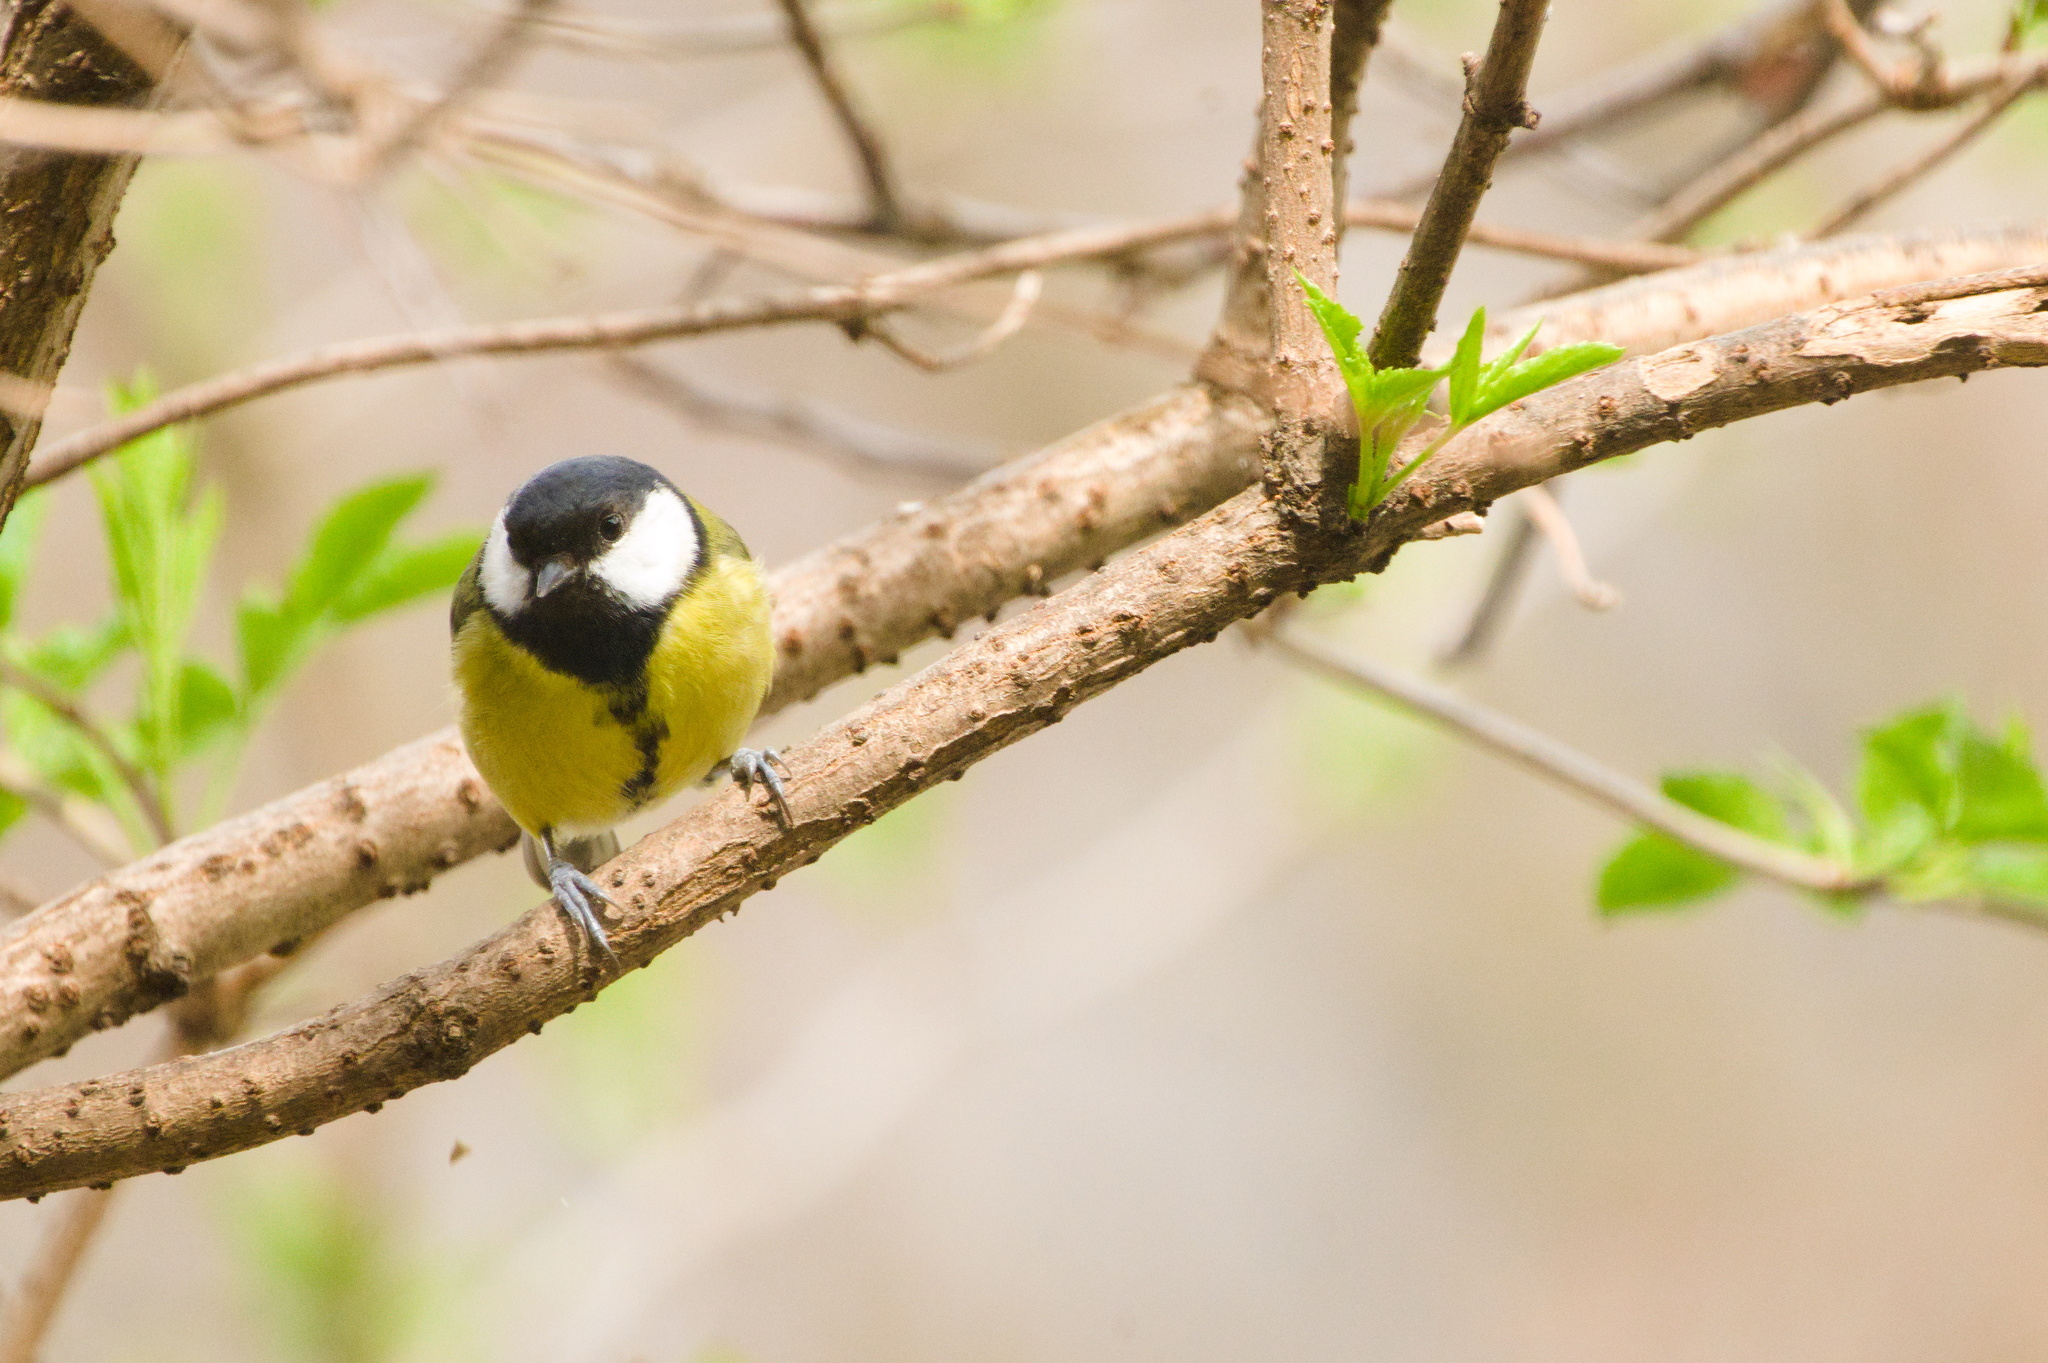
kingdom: Animalia
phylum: Chordata
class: Aves
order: Passeriformes
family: Paridae
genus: Parus
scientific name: Parus major
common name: Great tit
